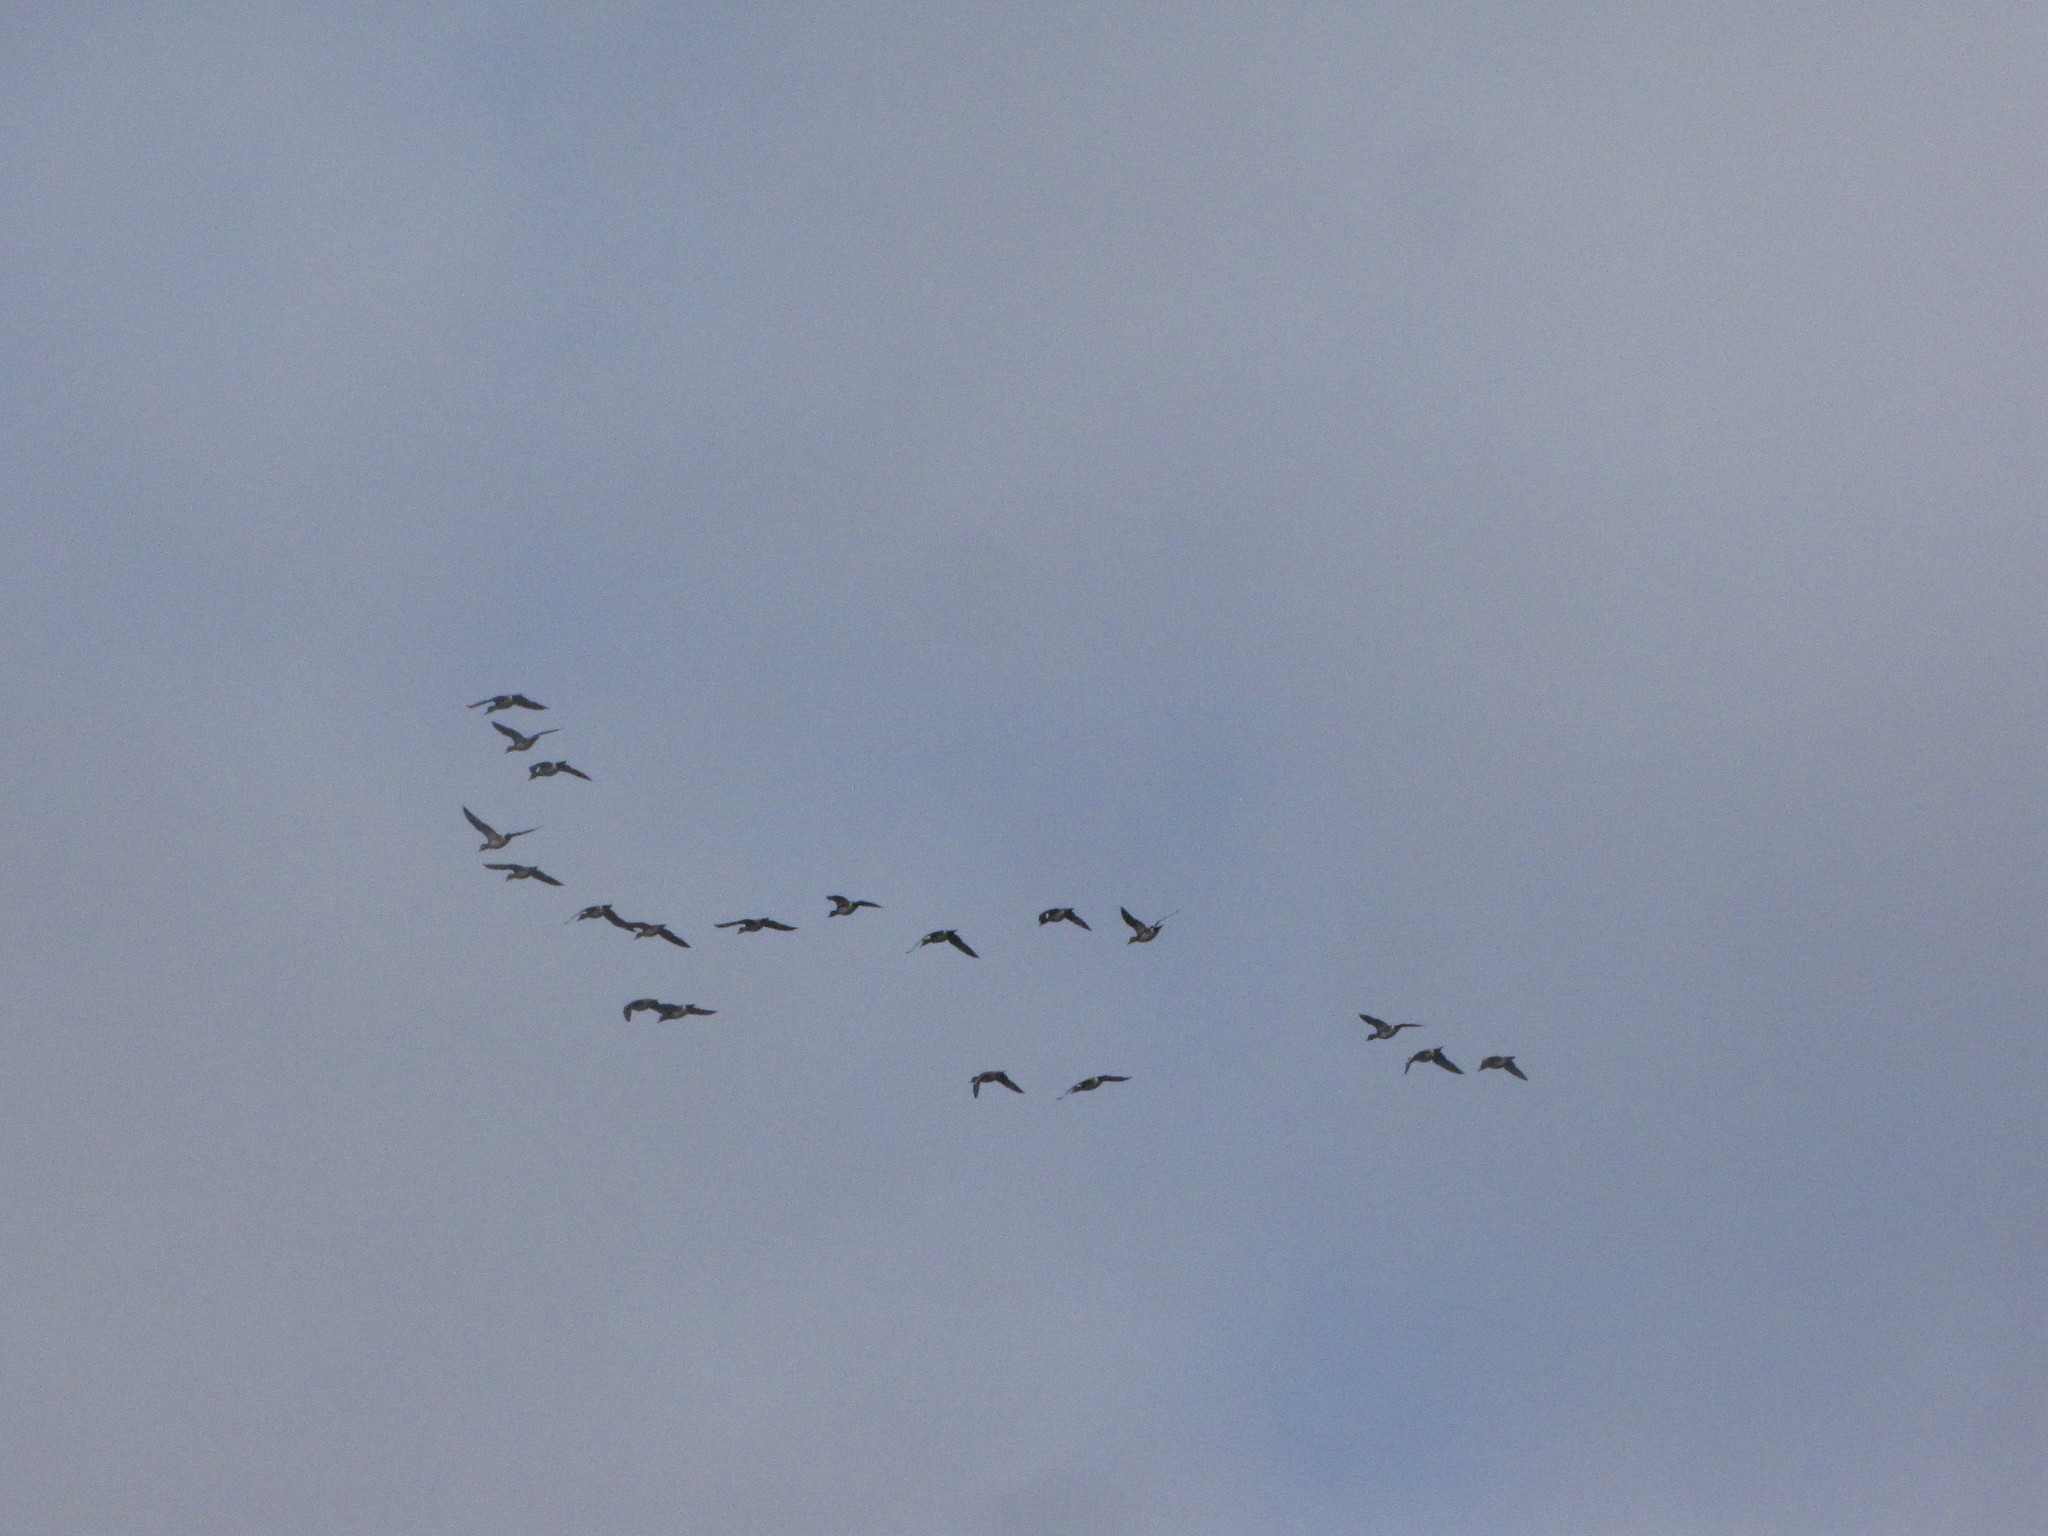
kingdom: Animalia
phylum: Chordata
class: Aves
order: Anseriformes
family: Anatidae
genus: Mareca
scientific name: Mareca americana
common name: American wigeon
